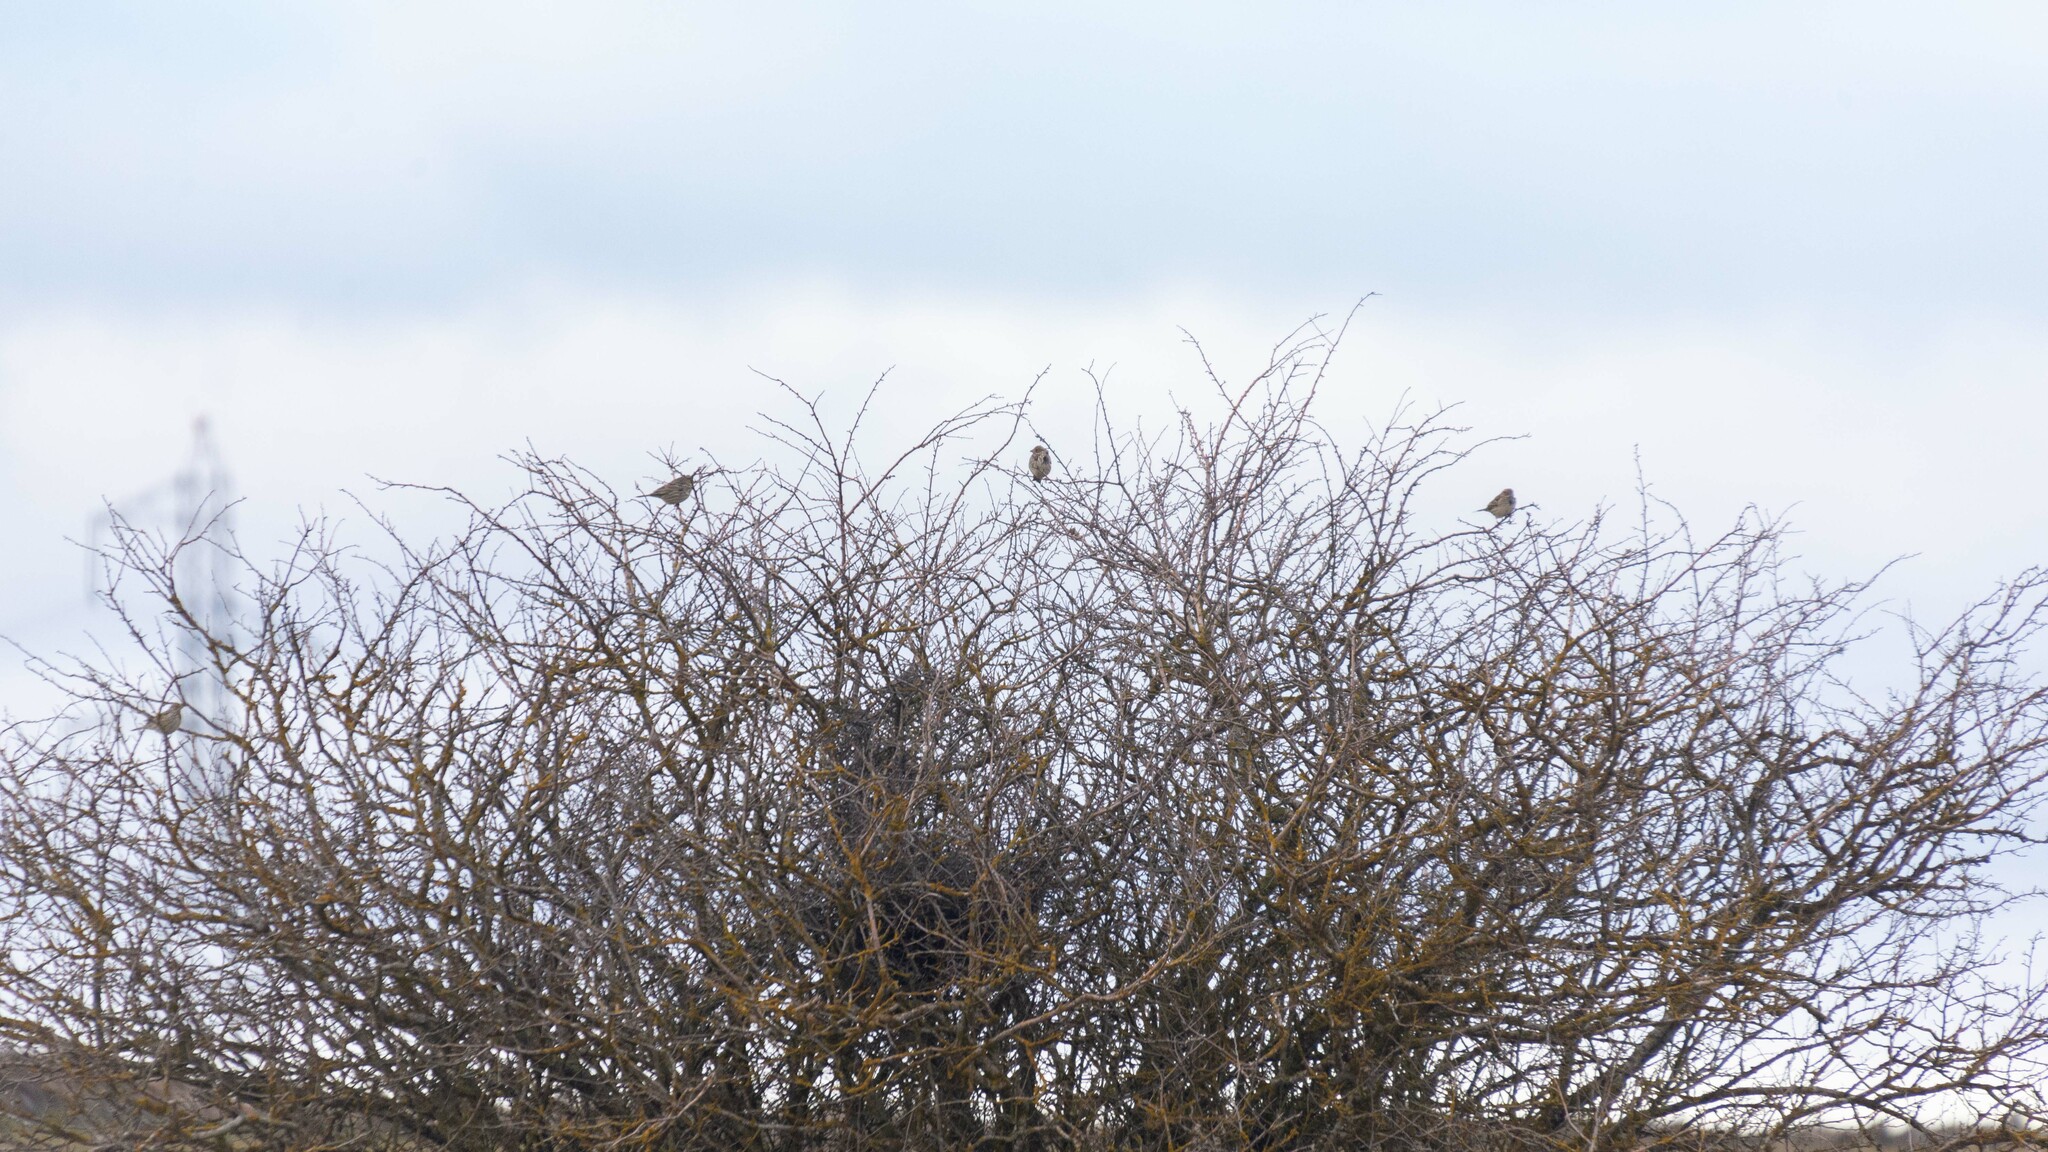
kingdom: Animalia
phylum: Chordata
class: Aves
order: Passeriformes
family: Emberizidae
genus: Emberiza
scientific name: Emberiza calandra
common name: Corn bunting
